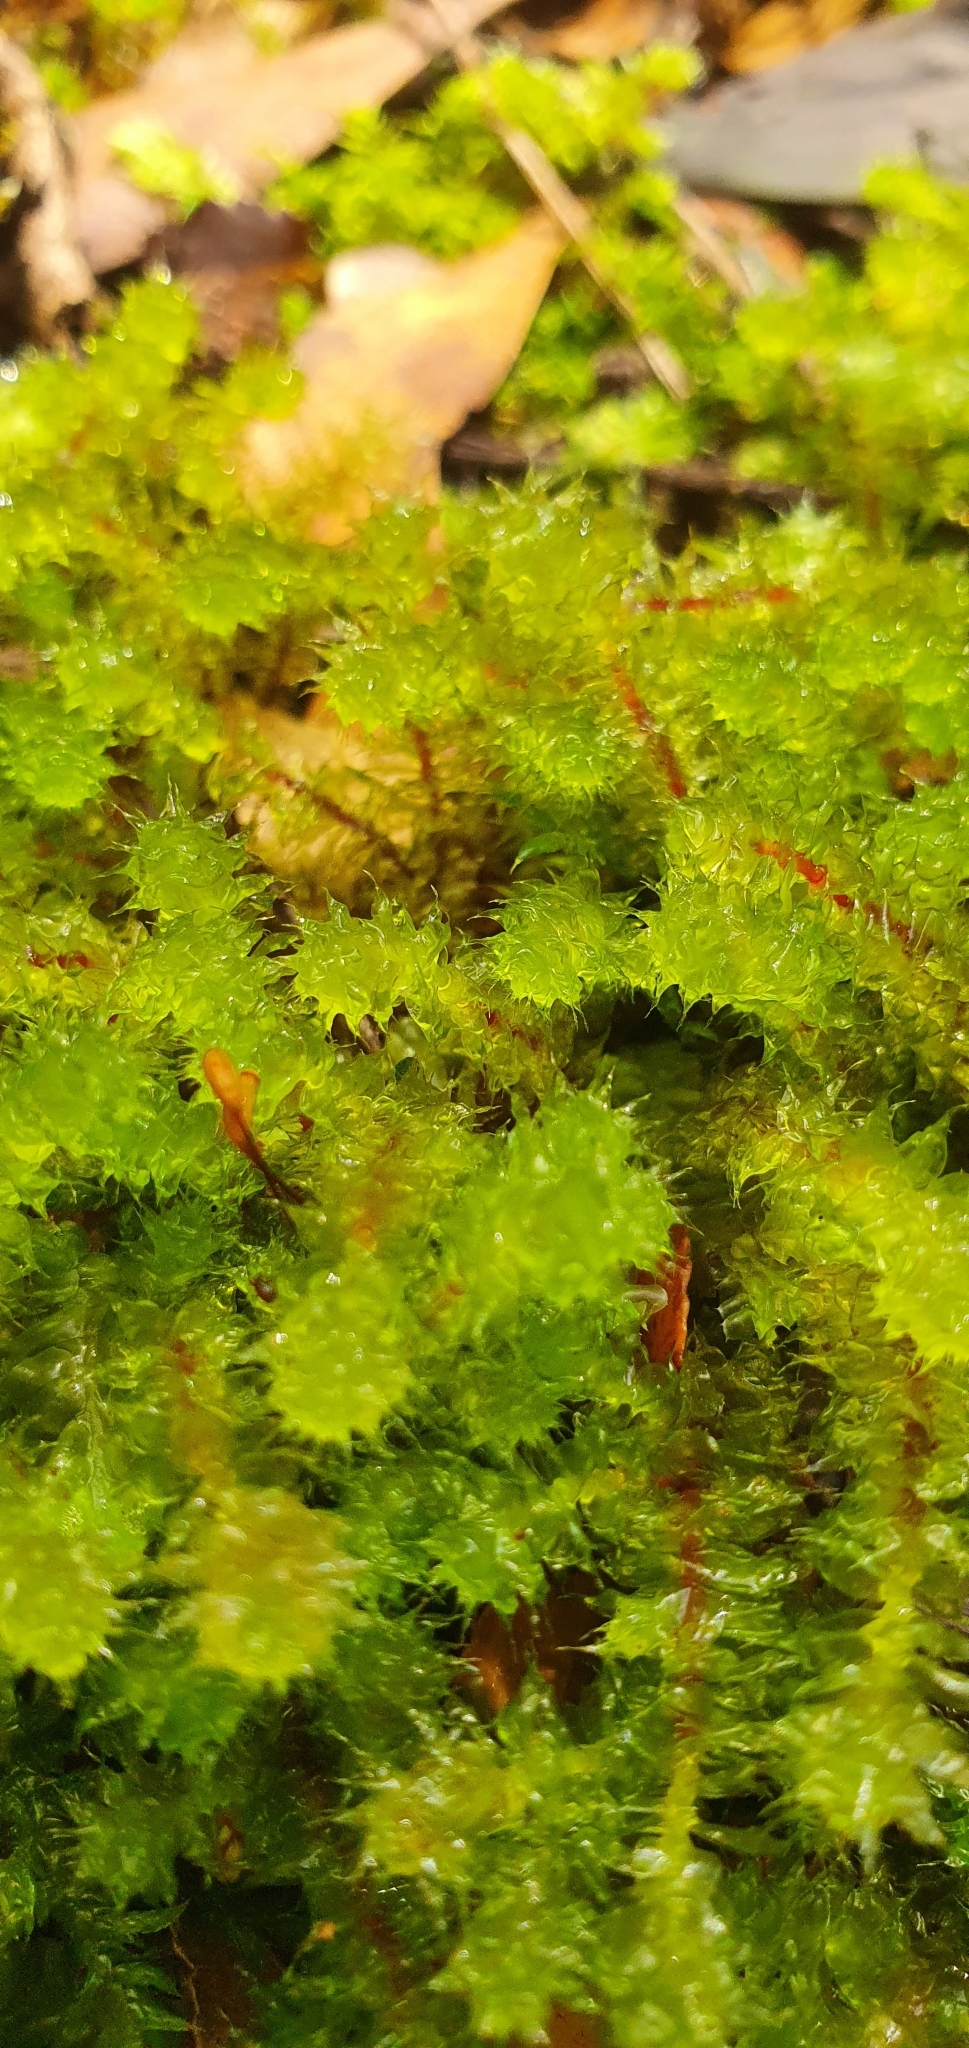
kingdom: Plantae
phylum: Bryophyta
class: Bryopsida
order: Ptychomniales
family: Ptychomniaceae
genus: Ptychomnion
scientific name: Ptychomnion aciculare
